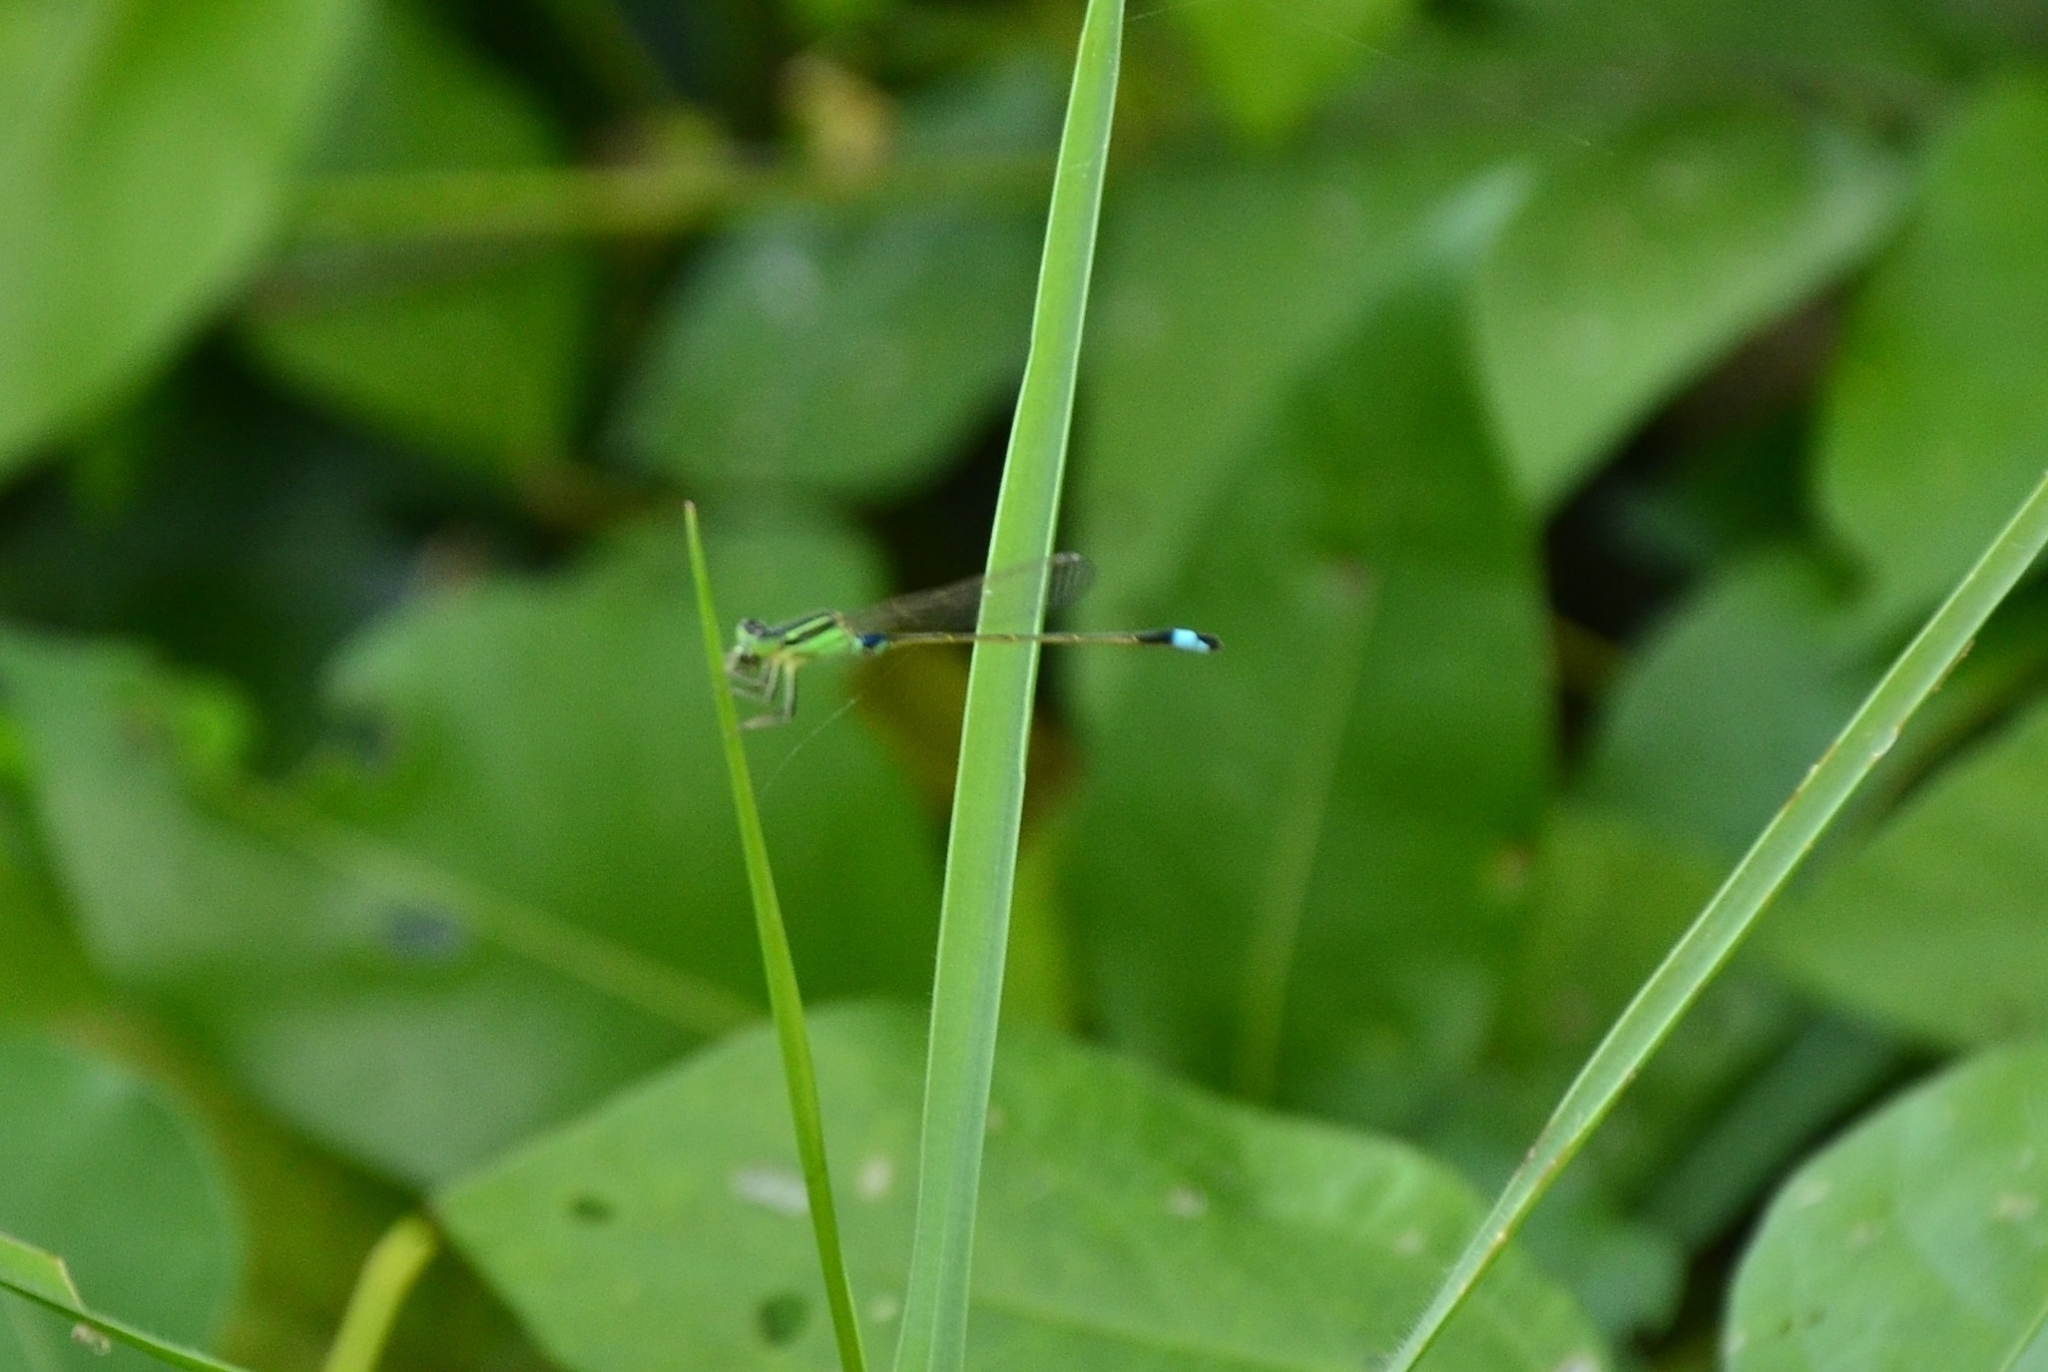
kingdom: Animalia
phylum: Arthropoda
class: Insecta
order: Odonata
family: Coenagrionidae
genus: Ischnura
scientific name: Ischnura senegalensis
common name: Tropical bluetail
